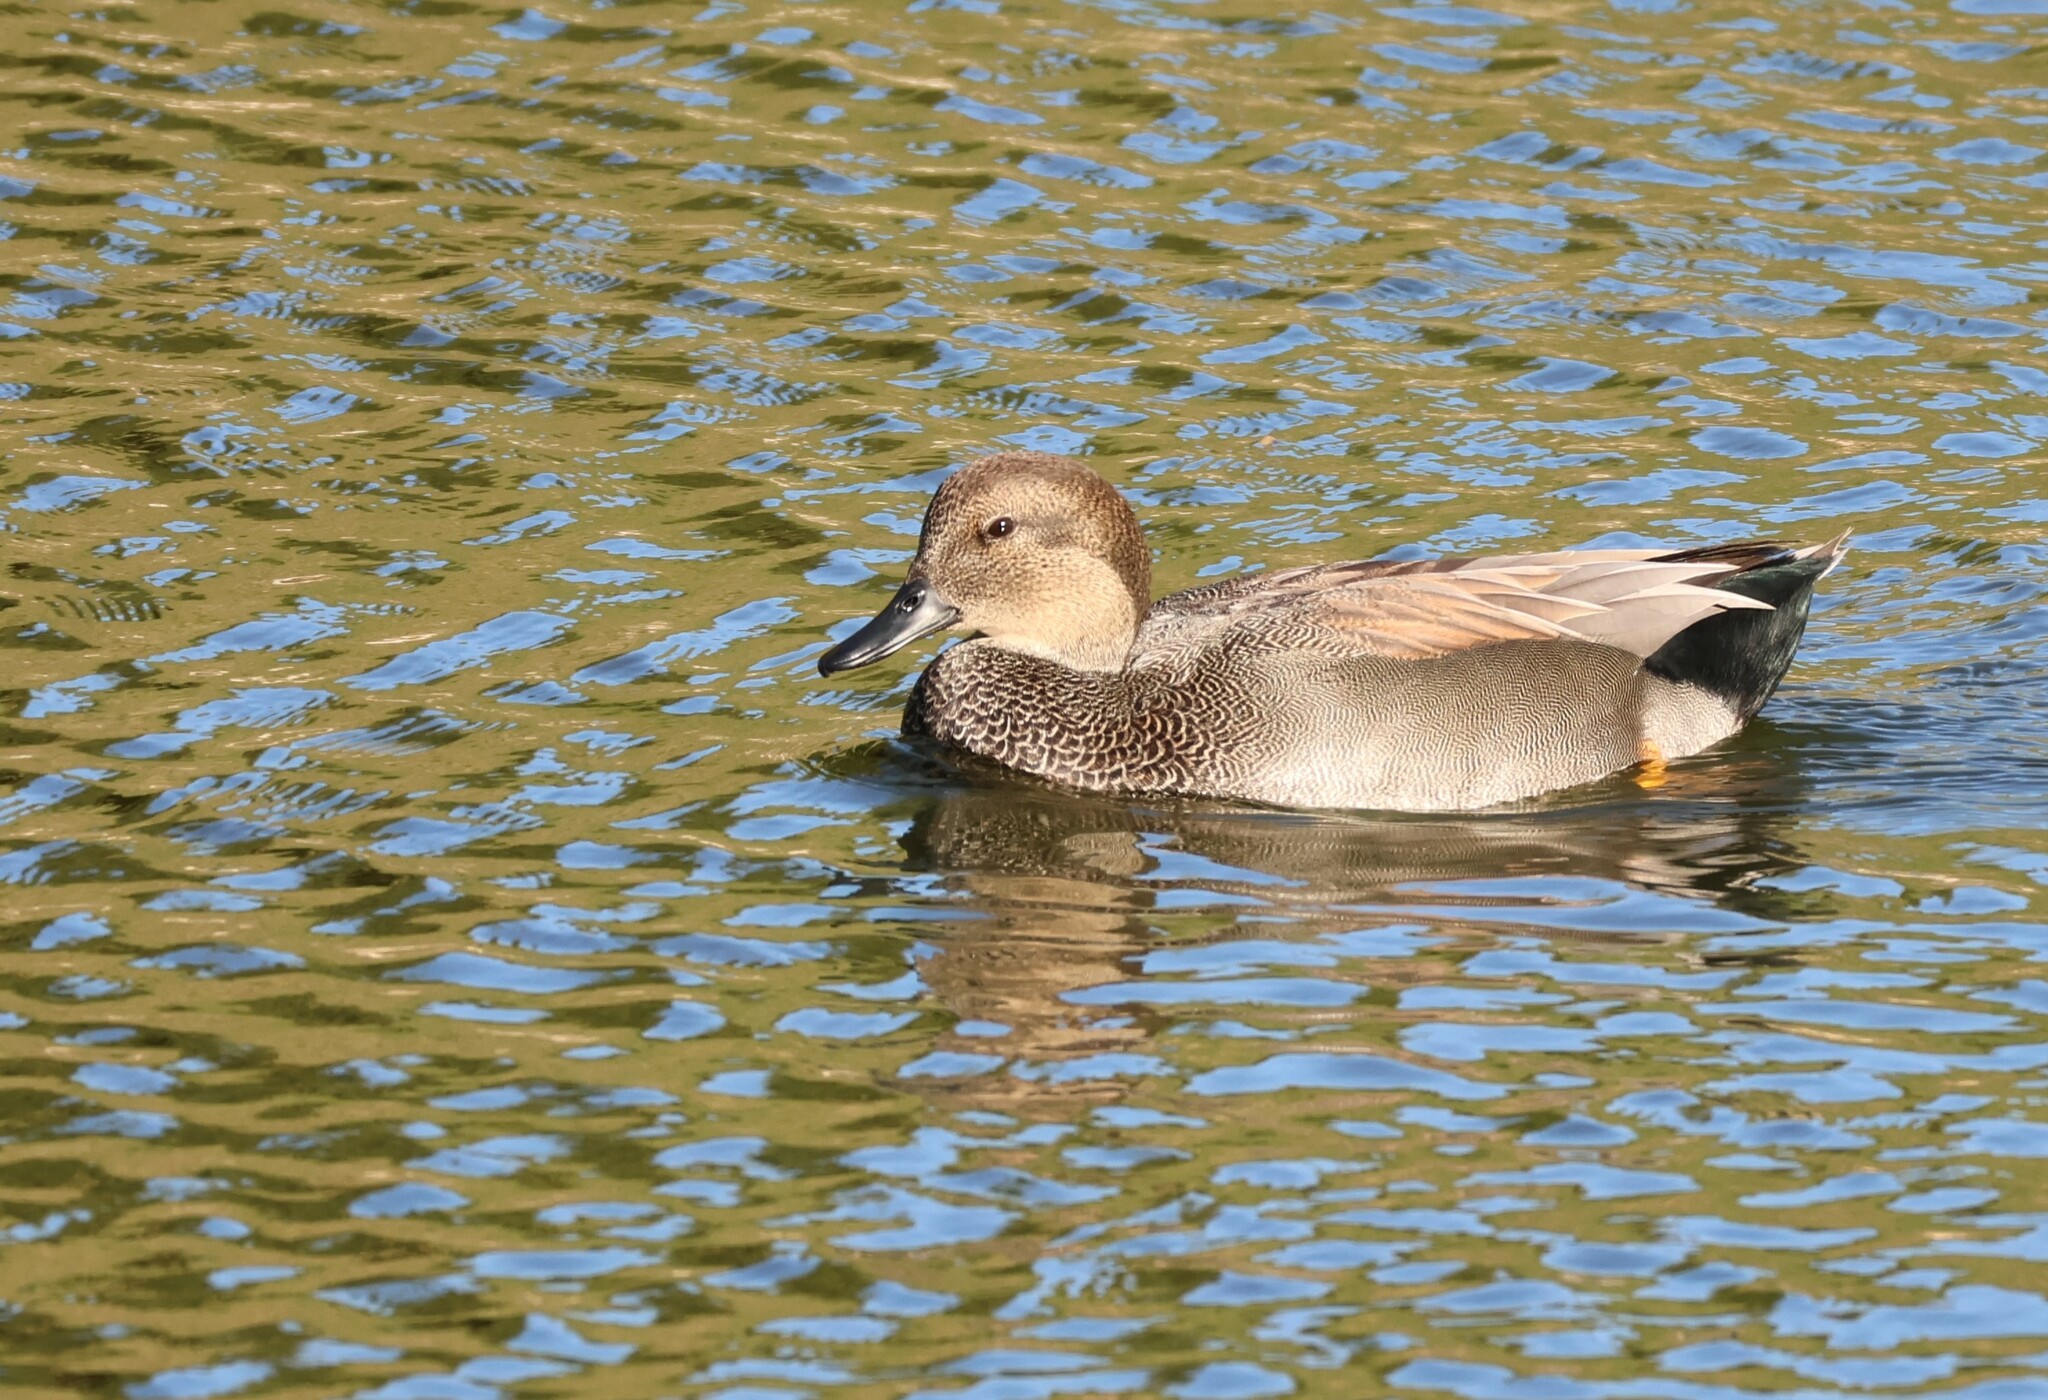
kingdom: Animalia
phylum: Chordata
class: Aves
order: Anseriformes
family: Anatidae
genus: Mareca
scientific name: Mareca strepera
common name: Gadwall
